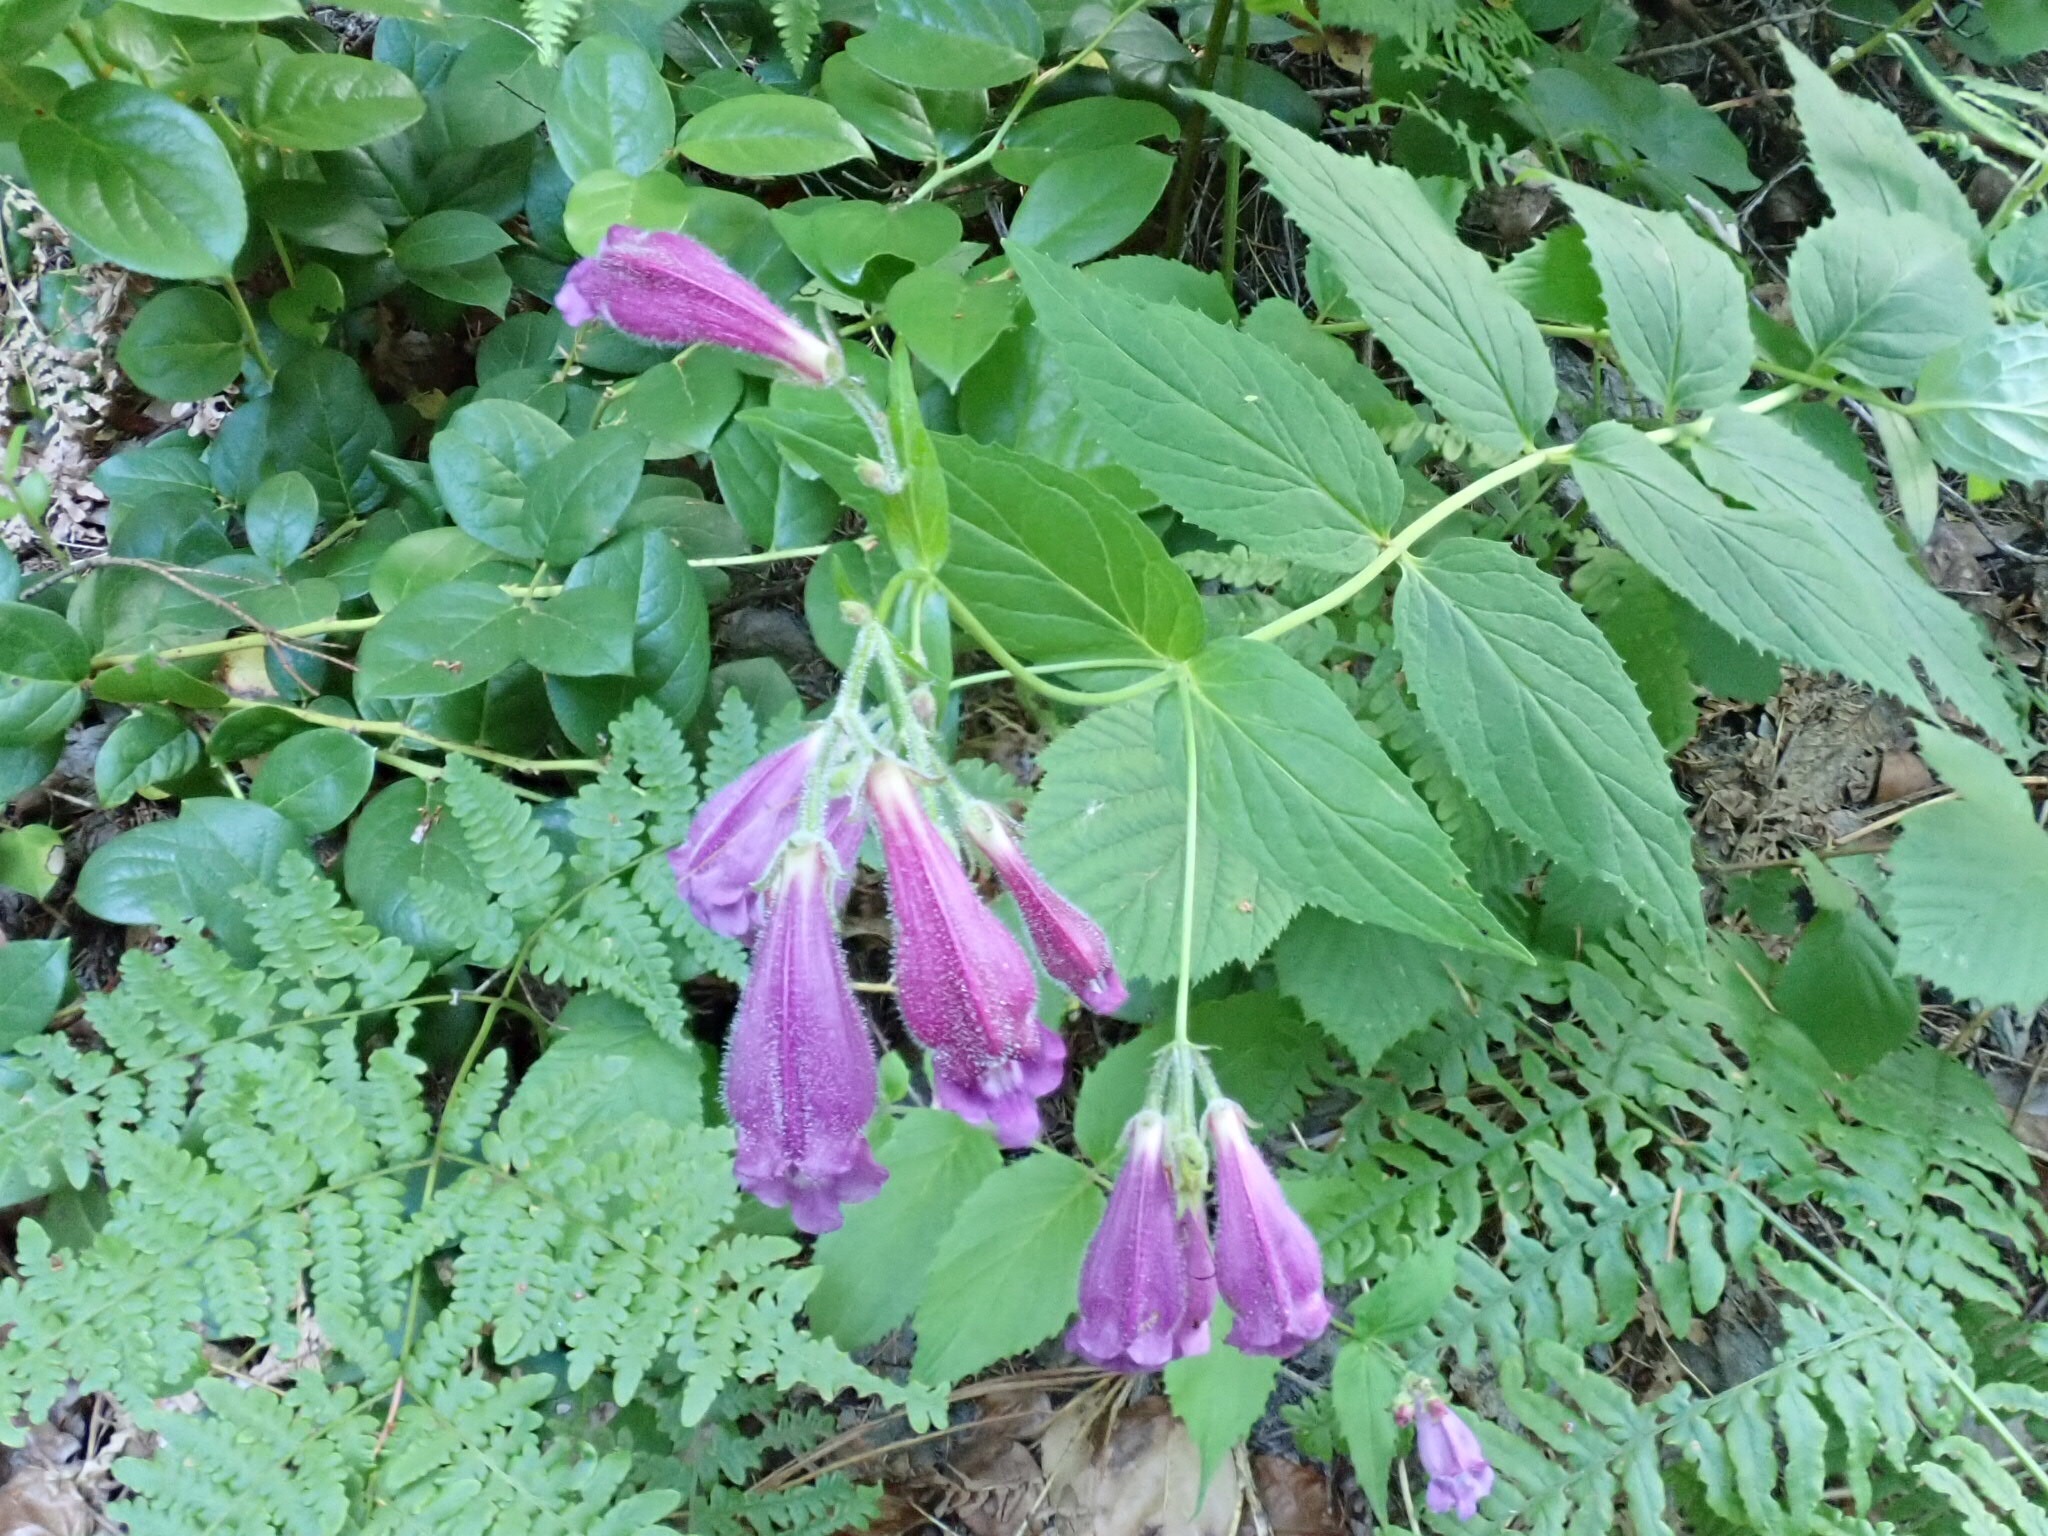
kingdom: Plantae
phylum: Tracheophyta
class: Magnoliopsida
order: Lamiales
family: Plantaginaceae
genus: Nothochelone
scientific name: Nothochelone nemorosa
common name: Woodland beardtongue
